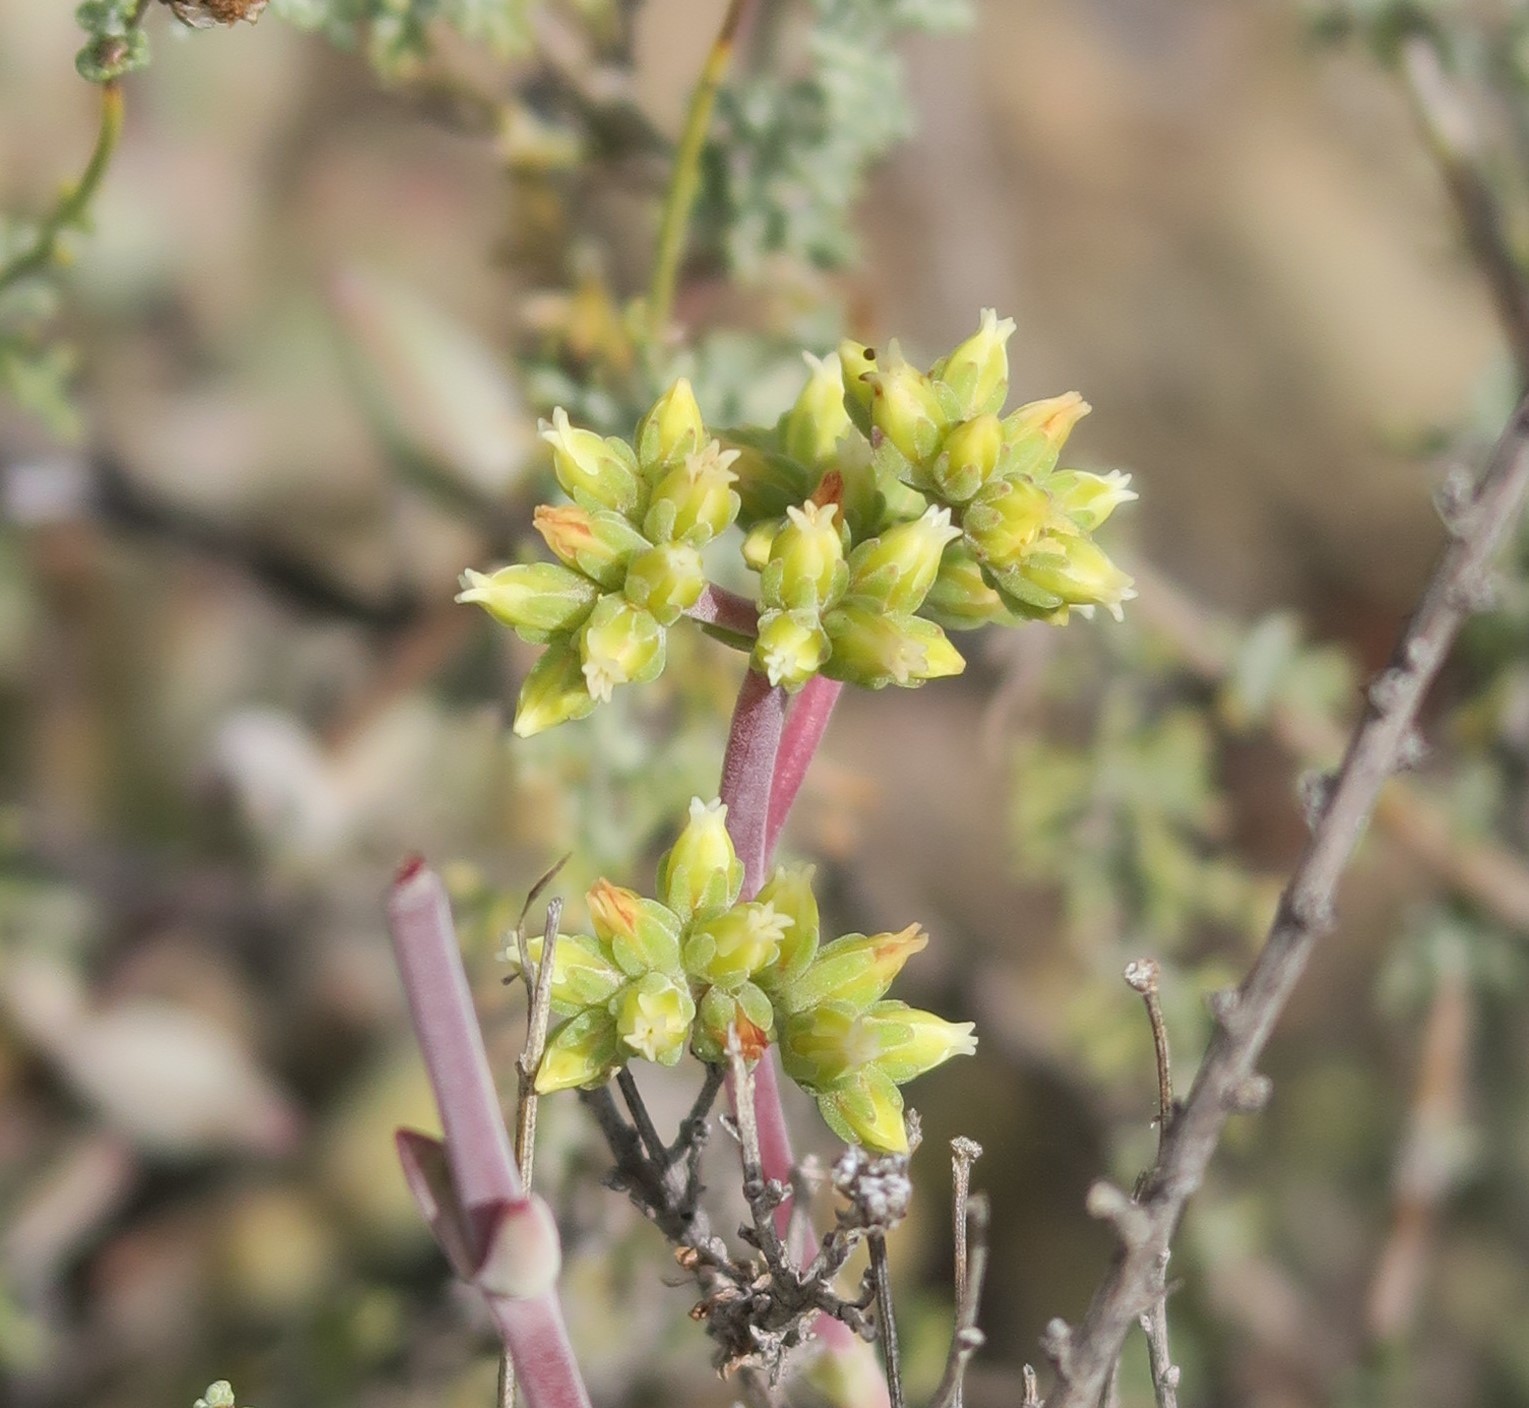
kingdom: Plantae
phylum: Tracheophyta
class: Magnoliopsida
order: Saxifragales
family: Crassulaceae
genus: Crassula
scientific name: Crassula subaphylla
